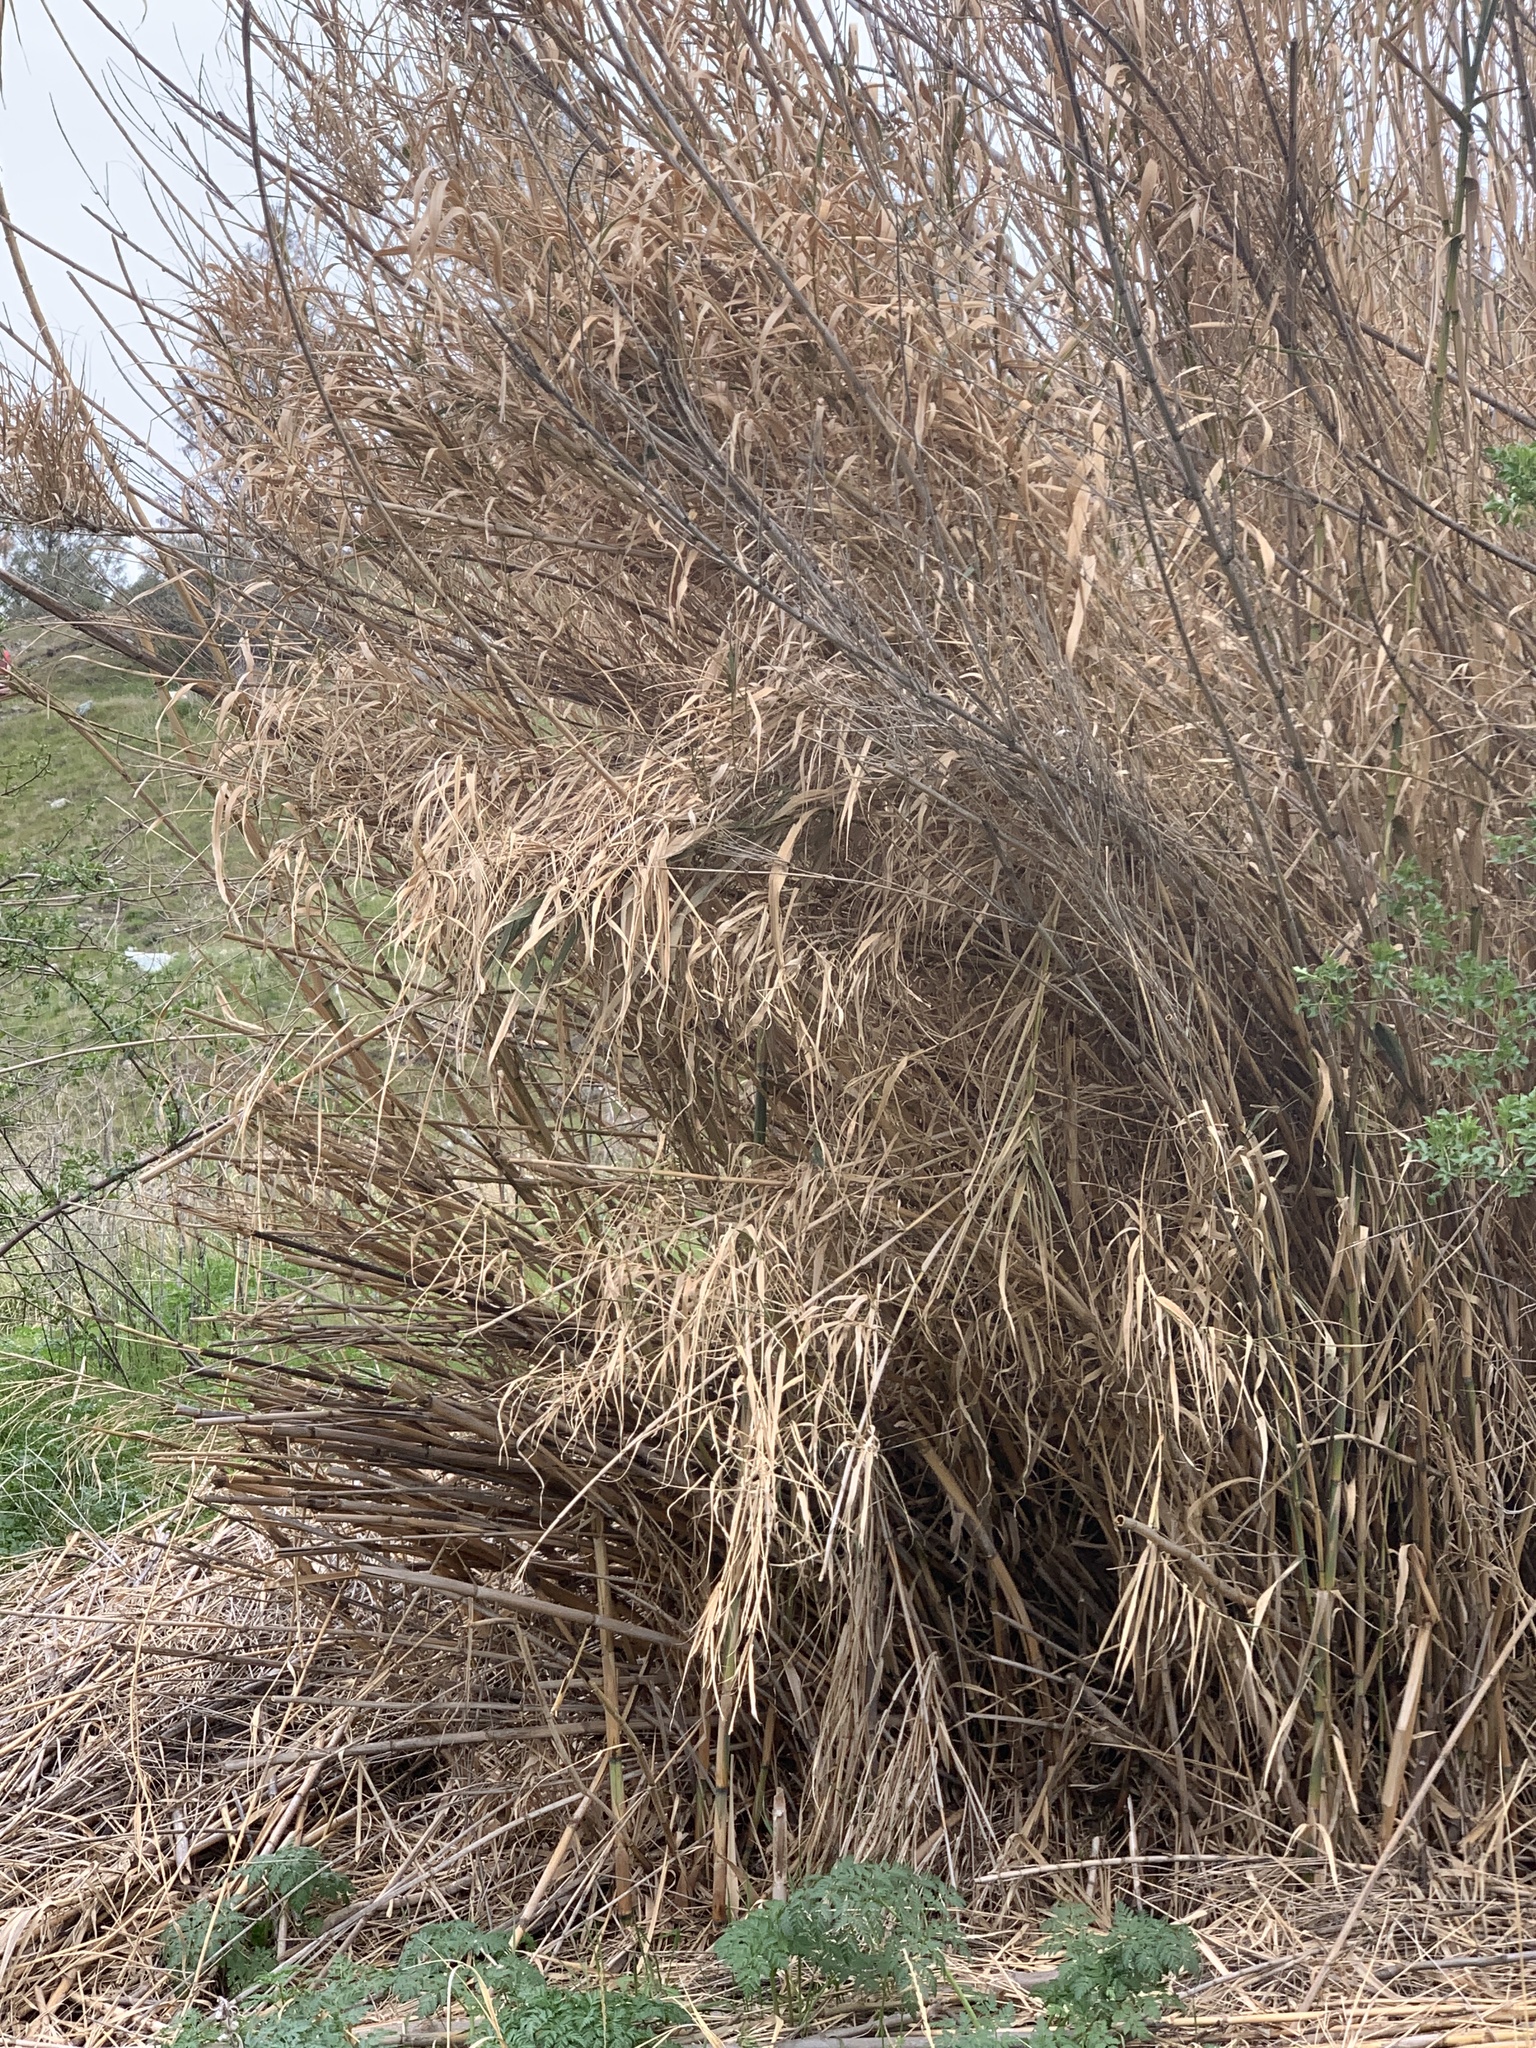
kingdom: Plantae
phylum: Tracheophyta
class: Liliopsida
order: Poales
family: Poaceae
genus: Arundo
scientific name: Arundo donax
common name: Giant reed
